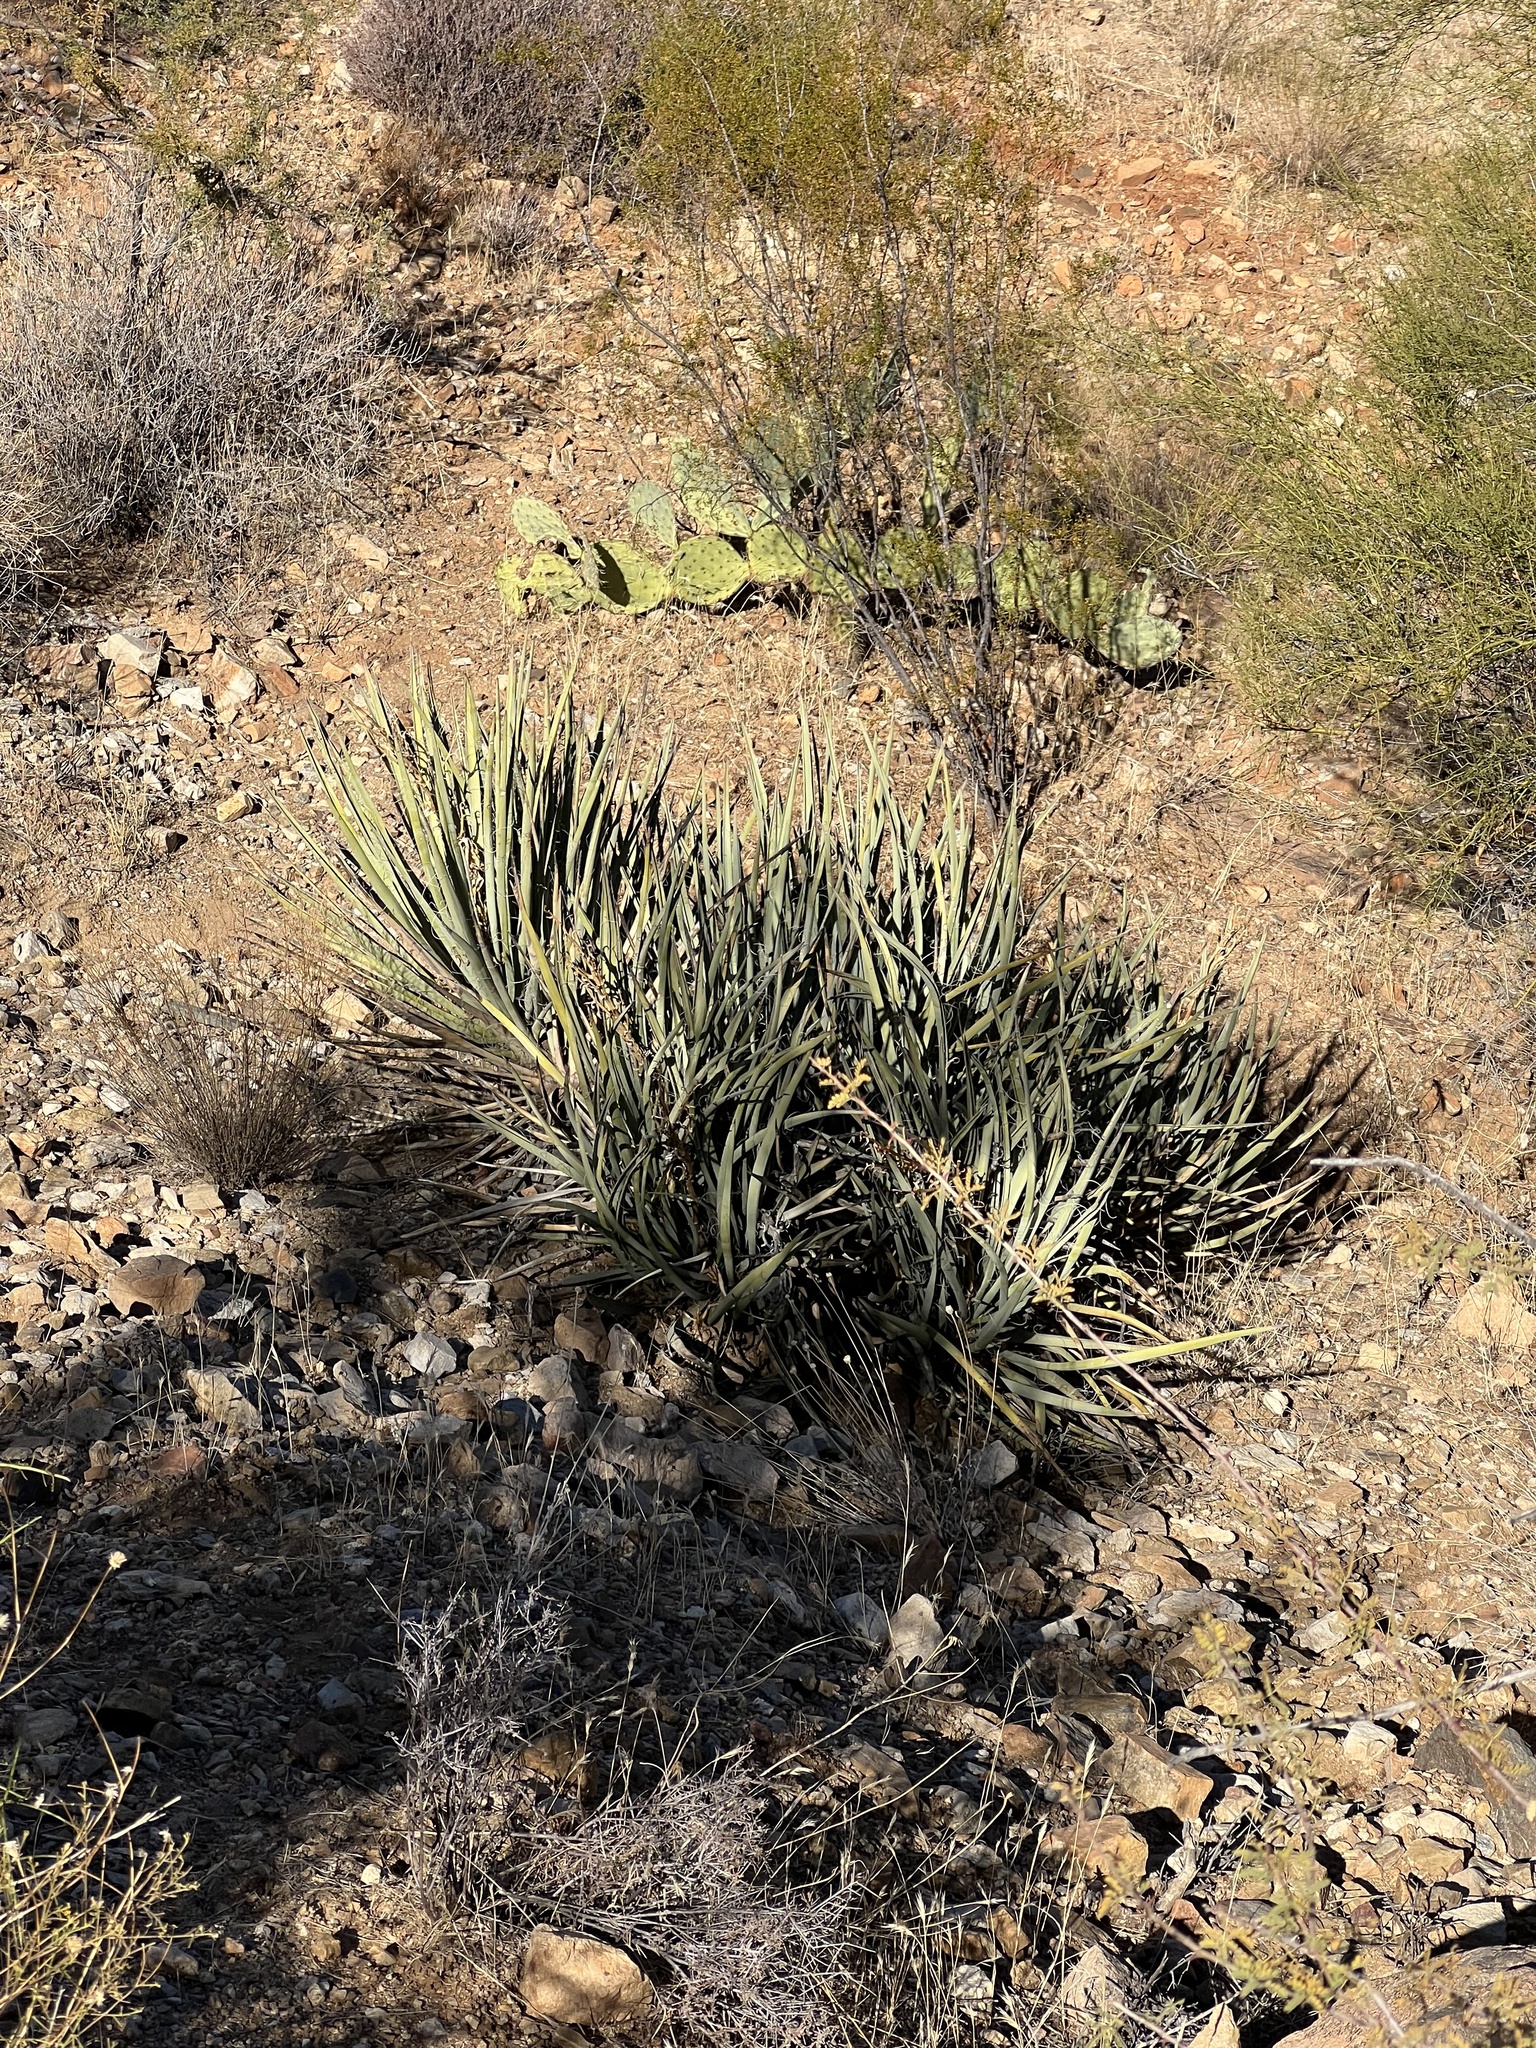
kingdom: Plantae
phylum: Tracheophyta
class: Liliopsida
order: Asparagales
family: Asparagaceae
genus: Yucca
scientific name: Yucca baccata
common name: Banana yucca
